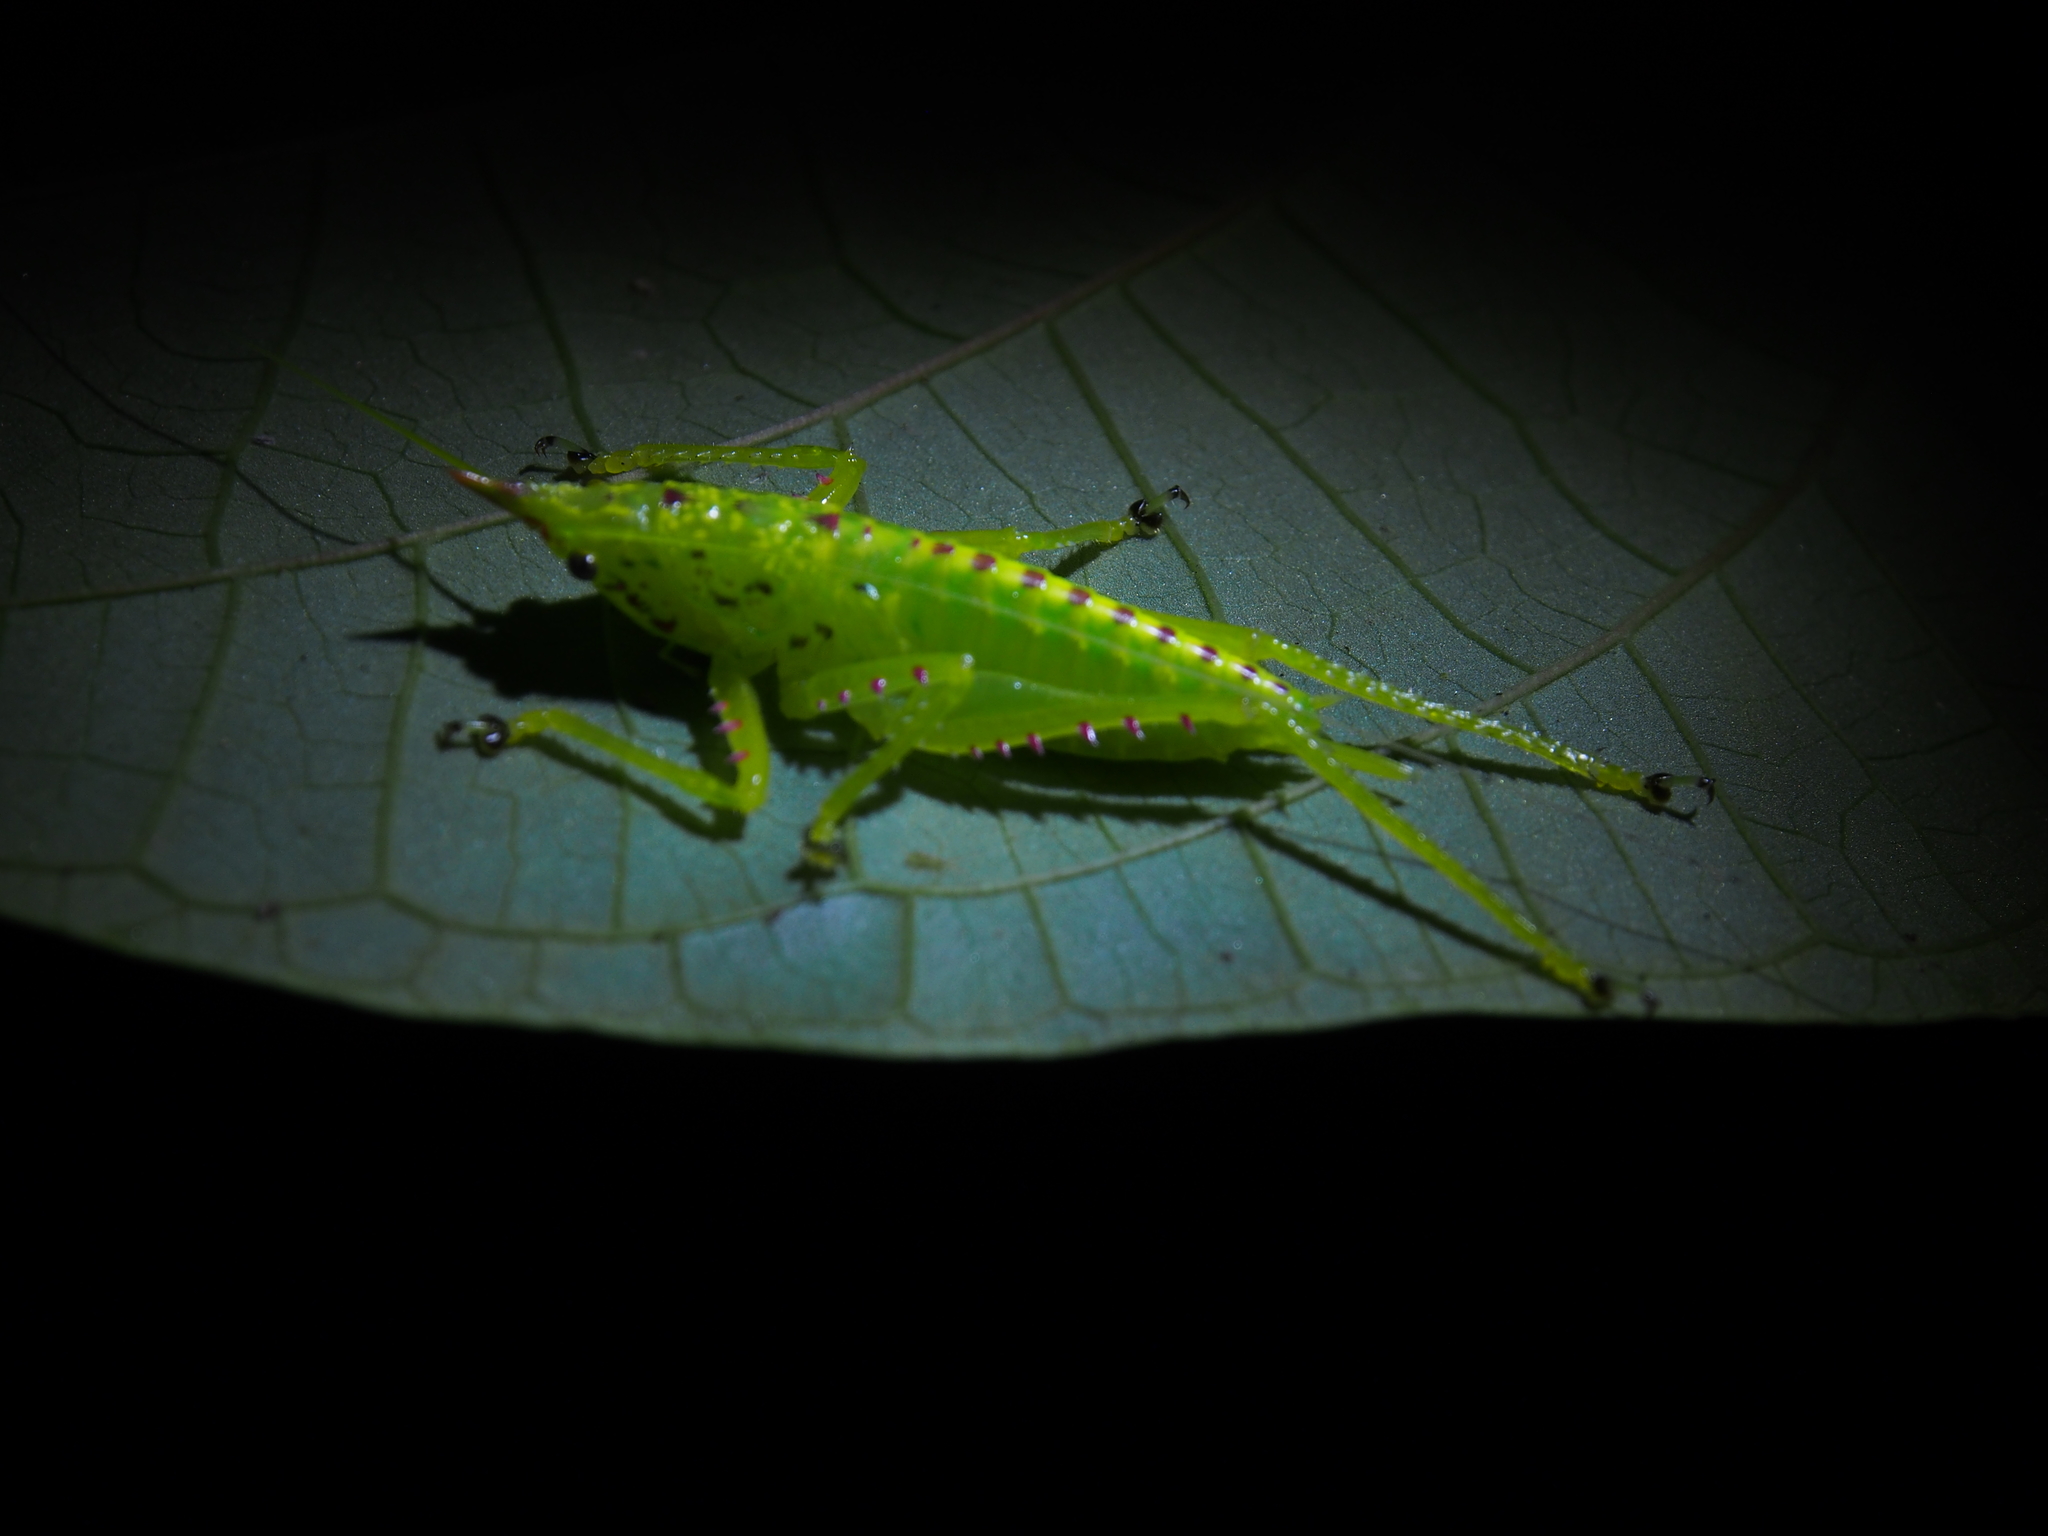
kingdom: Animalia
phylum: Arthropoda
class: Insecta
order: Orthoptera
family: Tettigoniidae
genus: Copiphora
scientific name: Copiphora rhinoceros
